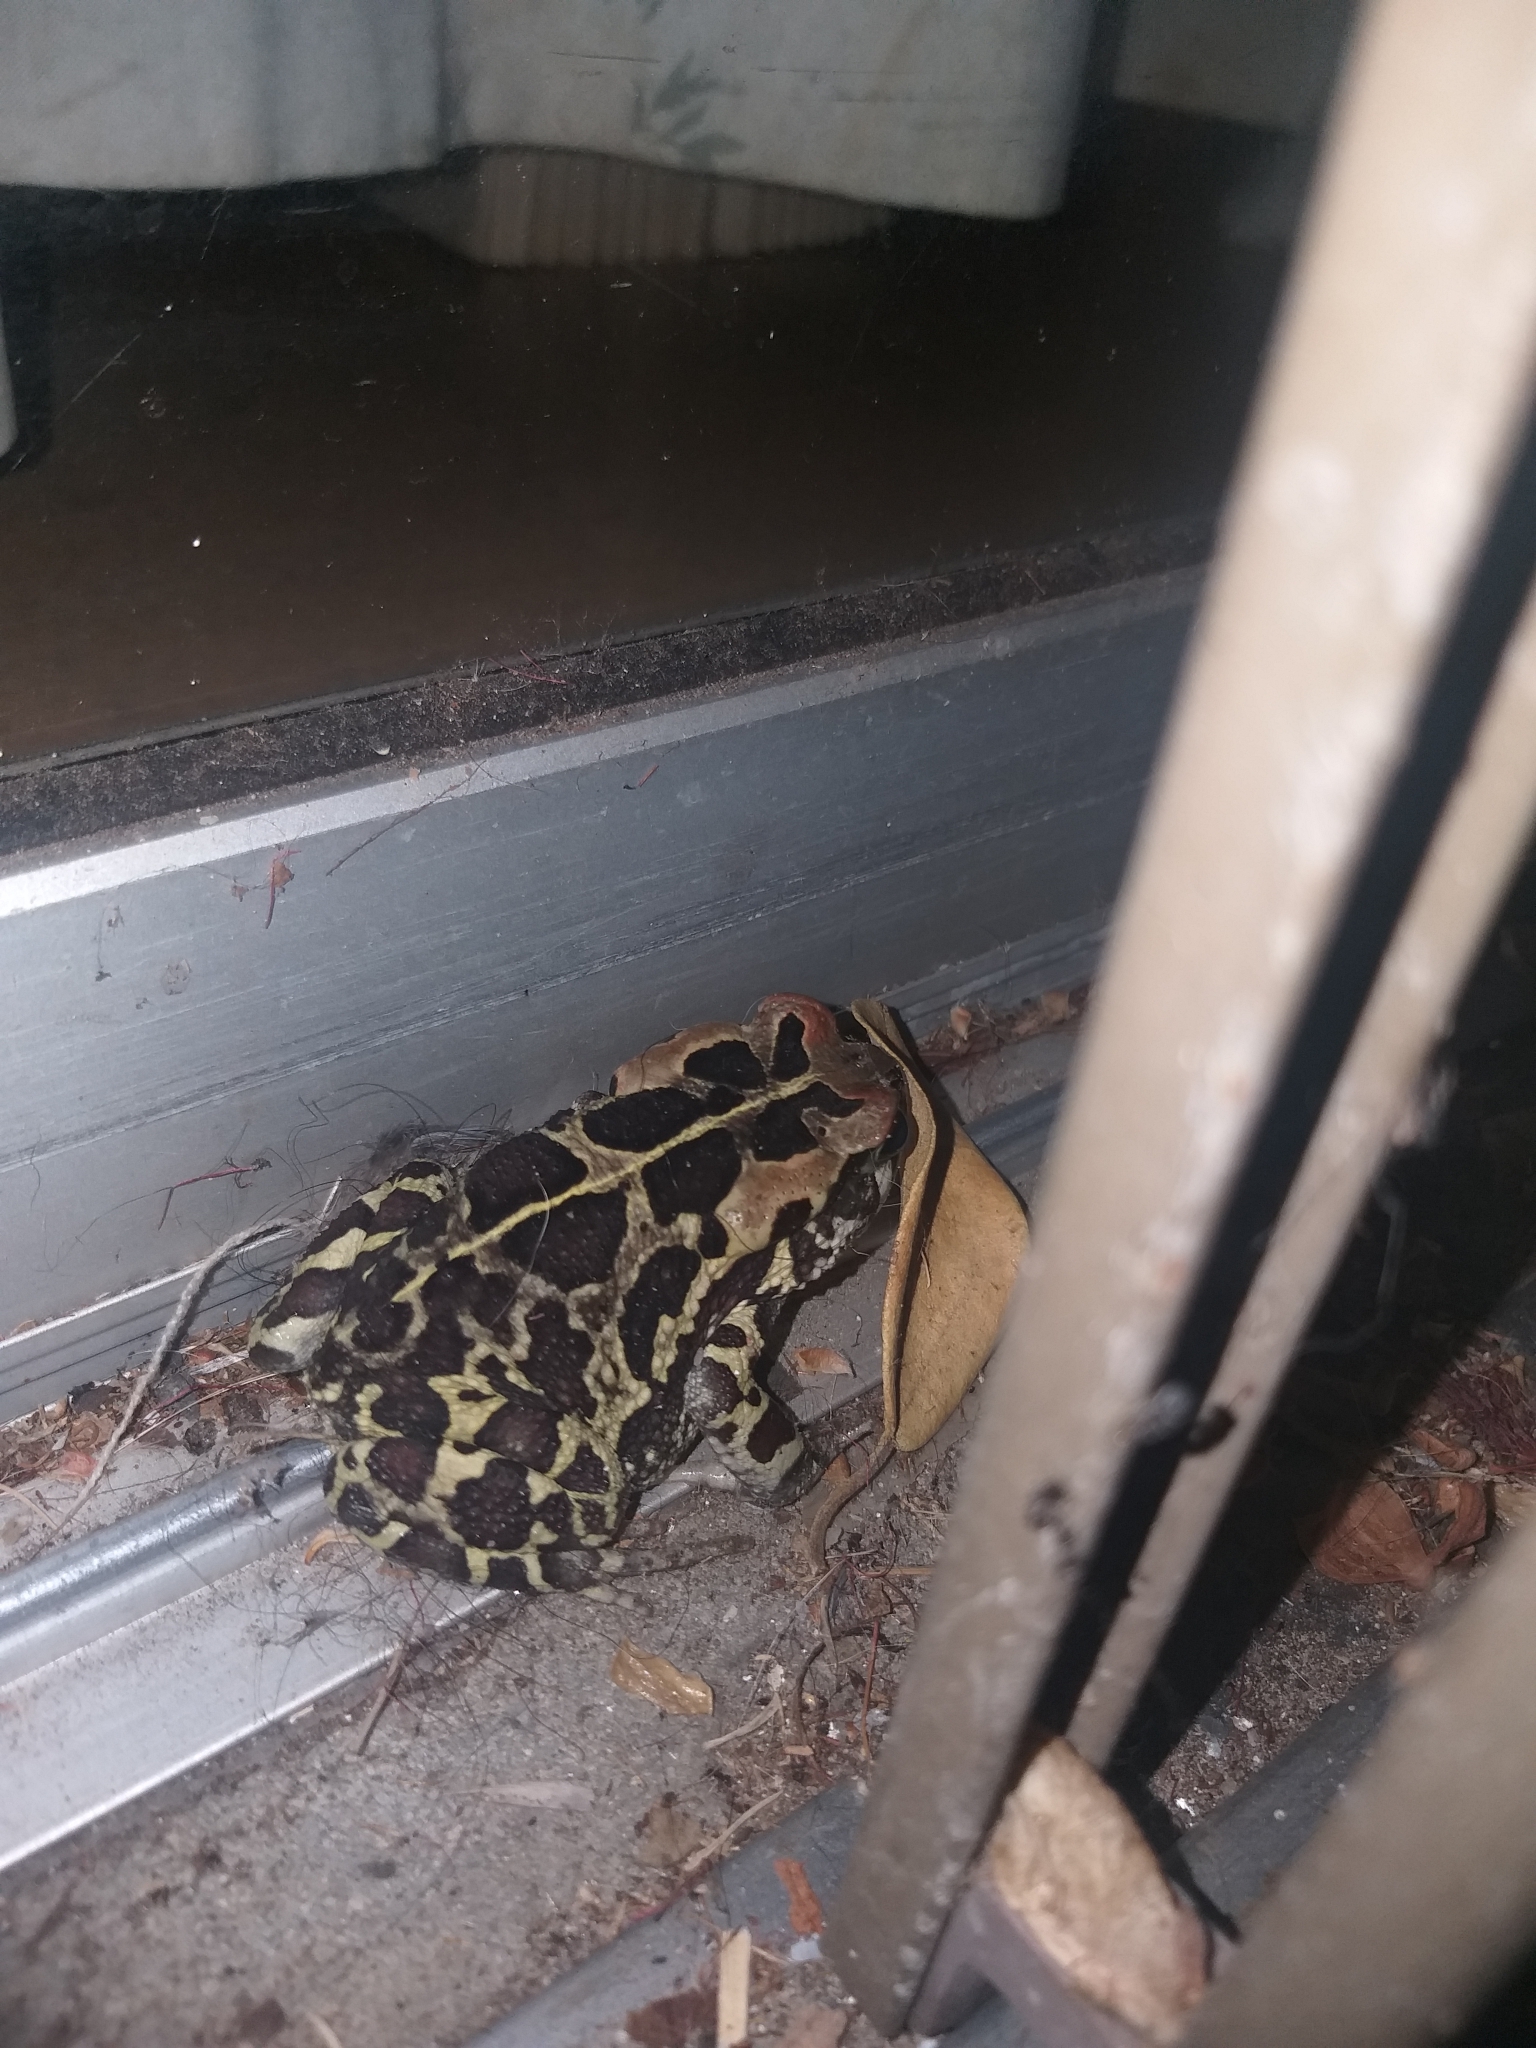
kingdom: Animalia
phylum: Chordata
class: Amphibia
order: Anura
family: Bufonidae
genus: Sclerophrys
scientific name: Sclerophrys pantherina
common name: Panther toad
